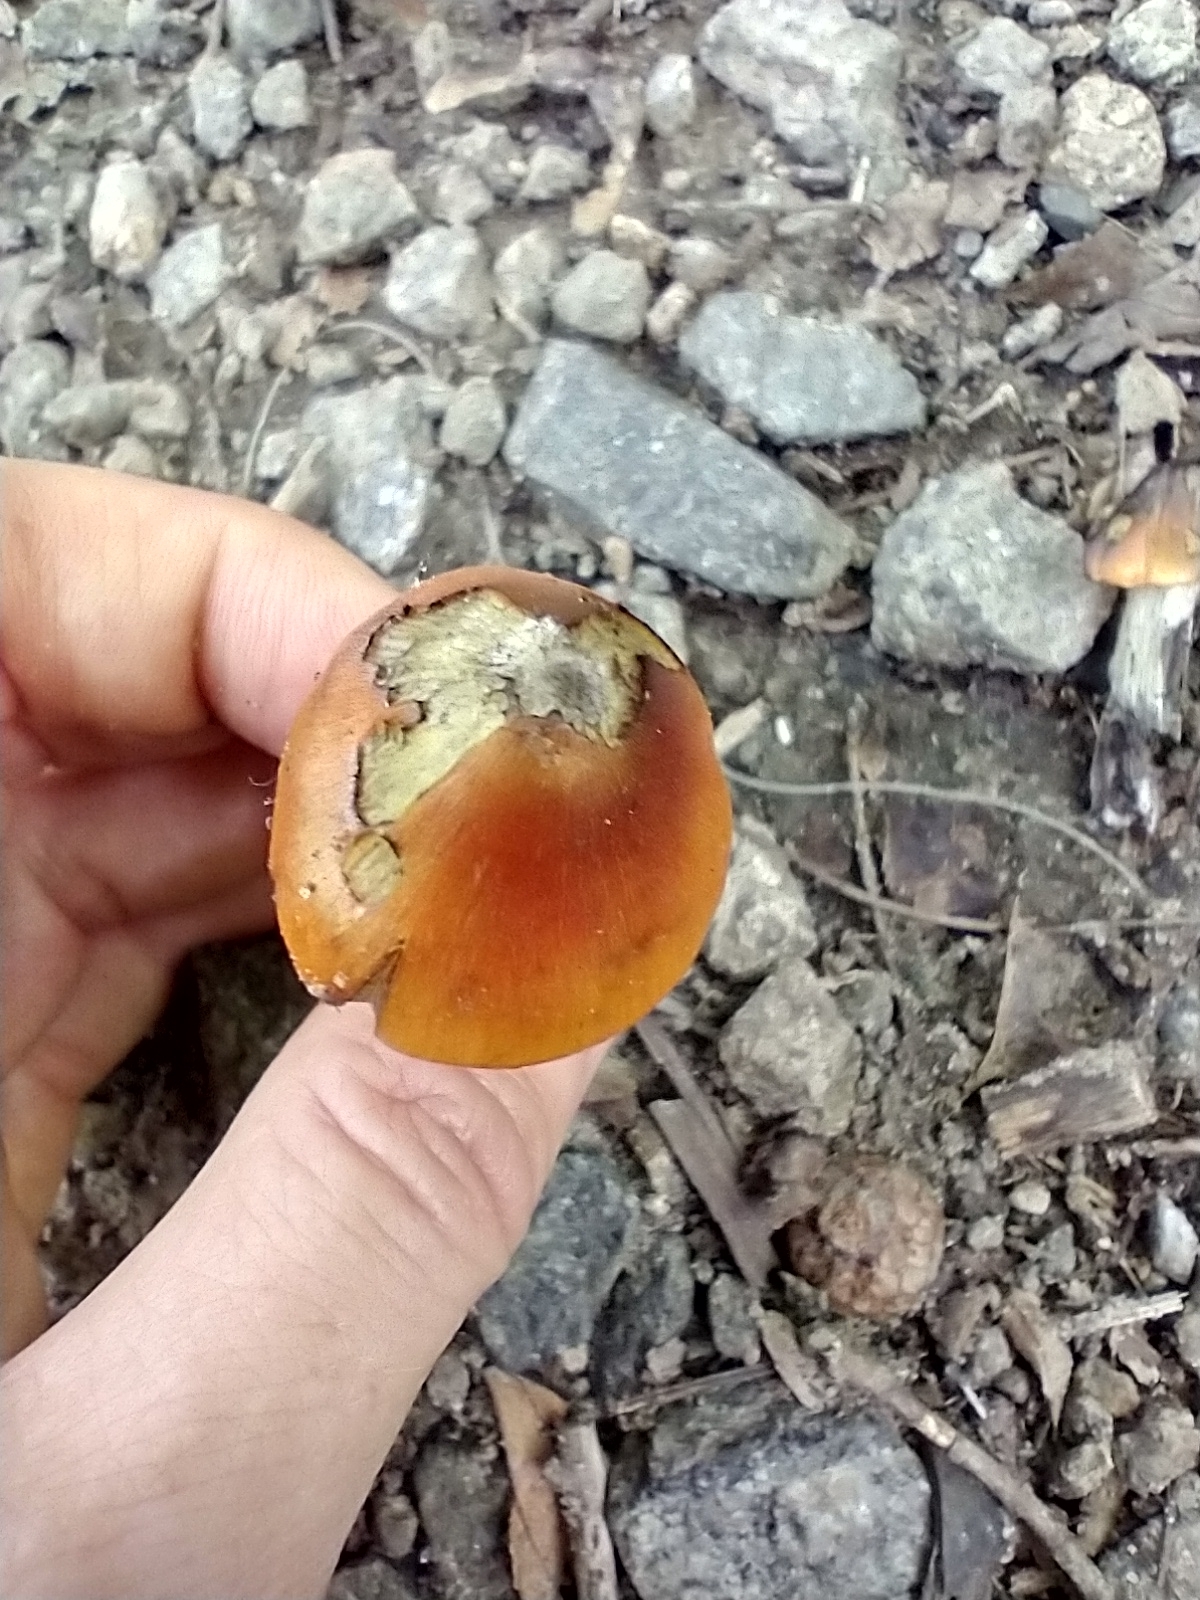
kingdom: Fungi
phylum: Basidiomycota
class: Agaricomycetes
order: Agaricales
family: Hygrophoraceae
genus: Hygrocybe
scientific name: Hygrocybe conica
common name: Blackening wax-cap
